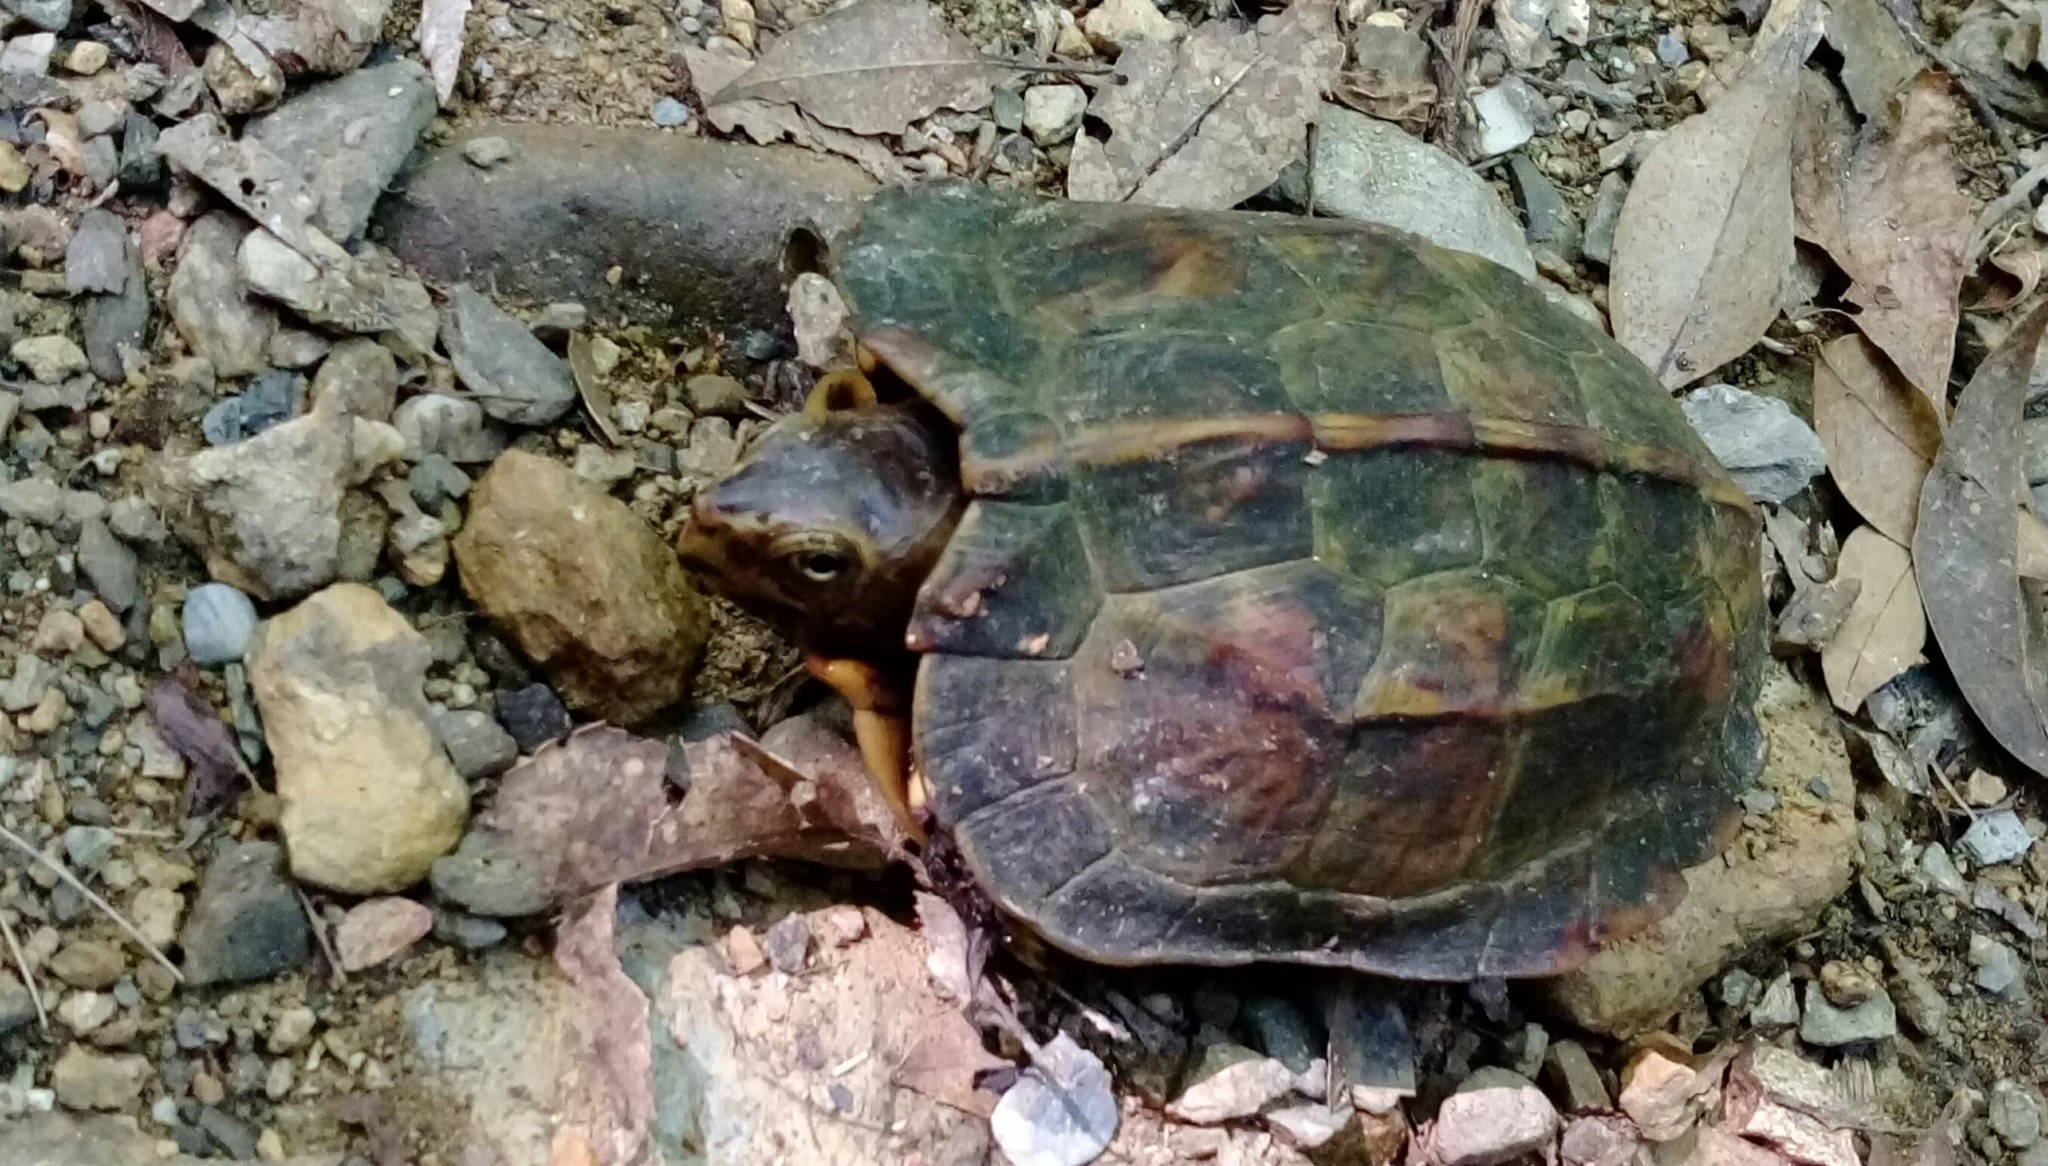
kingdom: Animalia
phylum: Chordata
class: Testudines
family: Geoemydidae
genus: Geoemyda
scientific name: Geoemyda japonica
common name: Okinawa black-breasted leaf turtle
